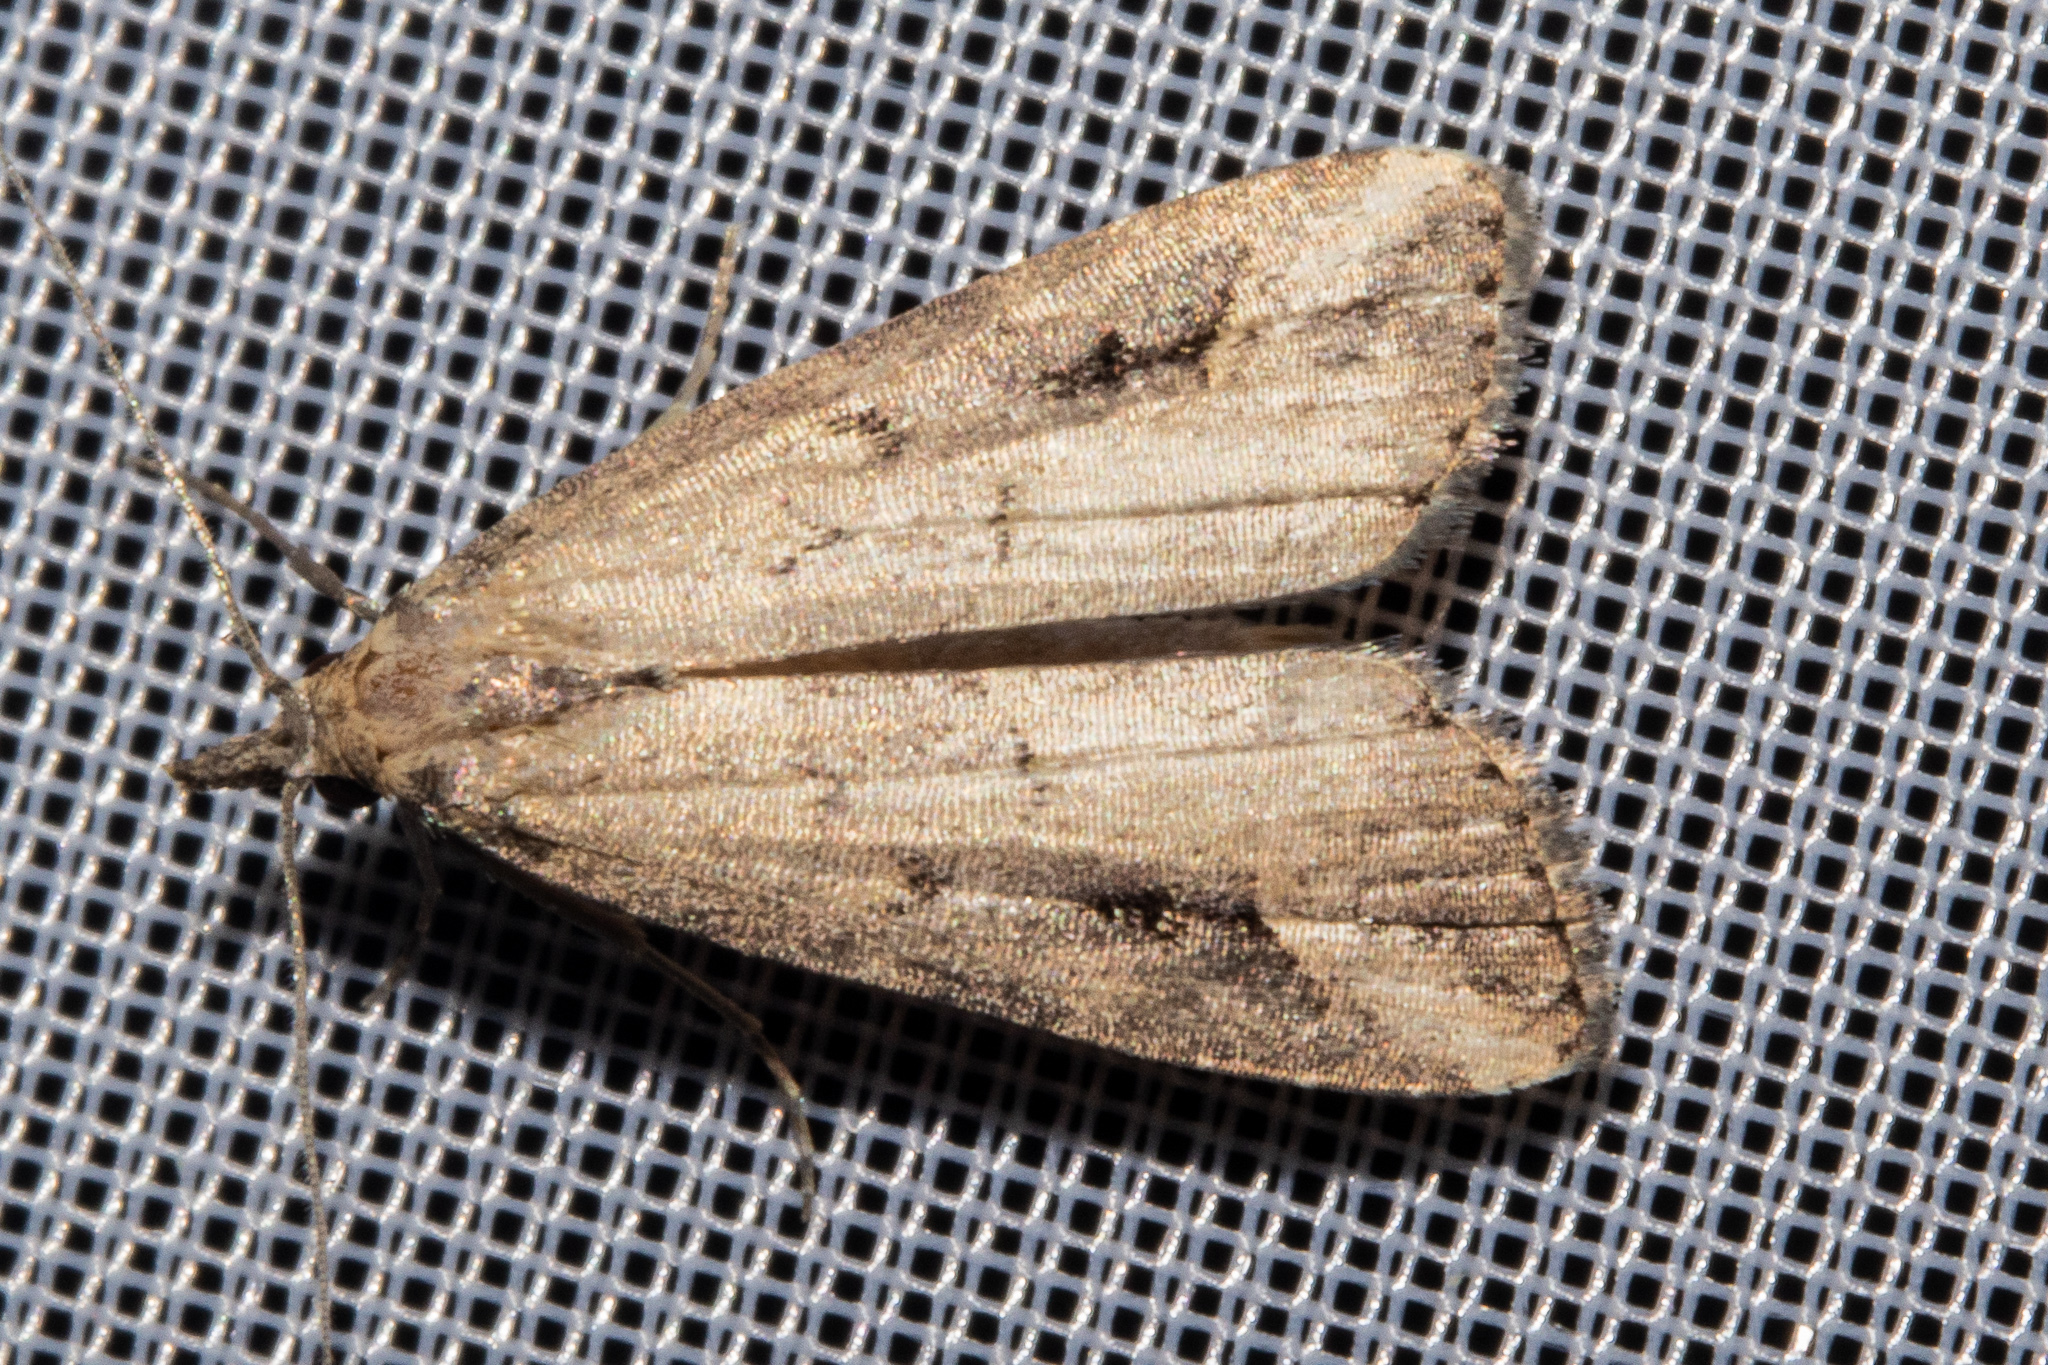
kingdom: Animalia
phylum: Arthropoda
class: Insecta
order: Lepidoptera
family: Erebidae
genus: Schrankia
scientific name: Schrankia costaestrigalis
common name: Pinion-streaked snout
